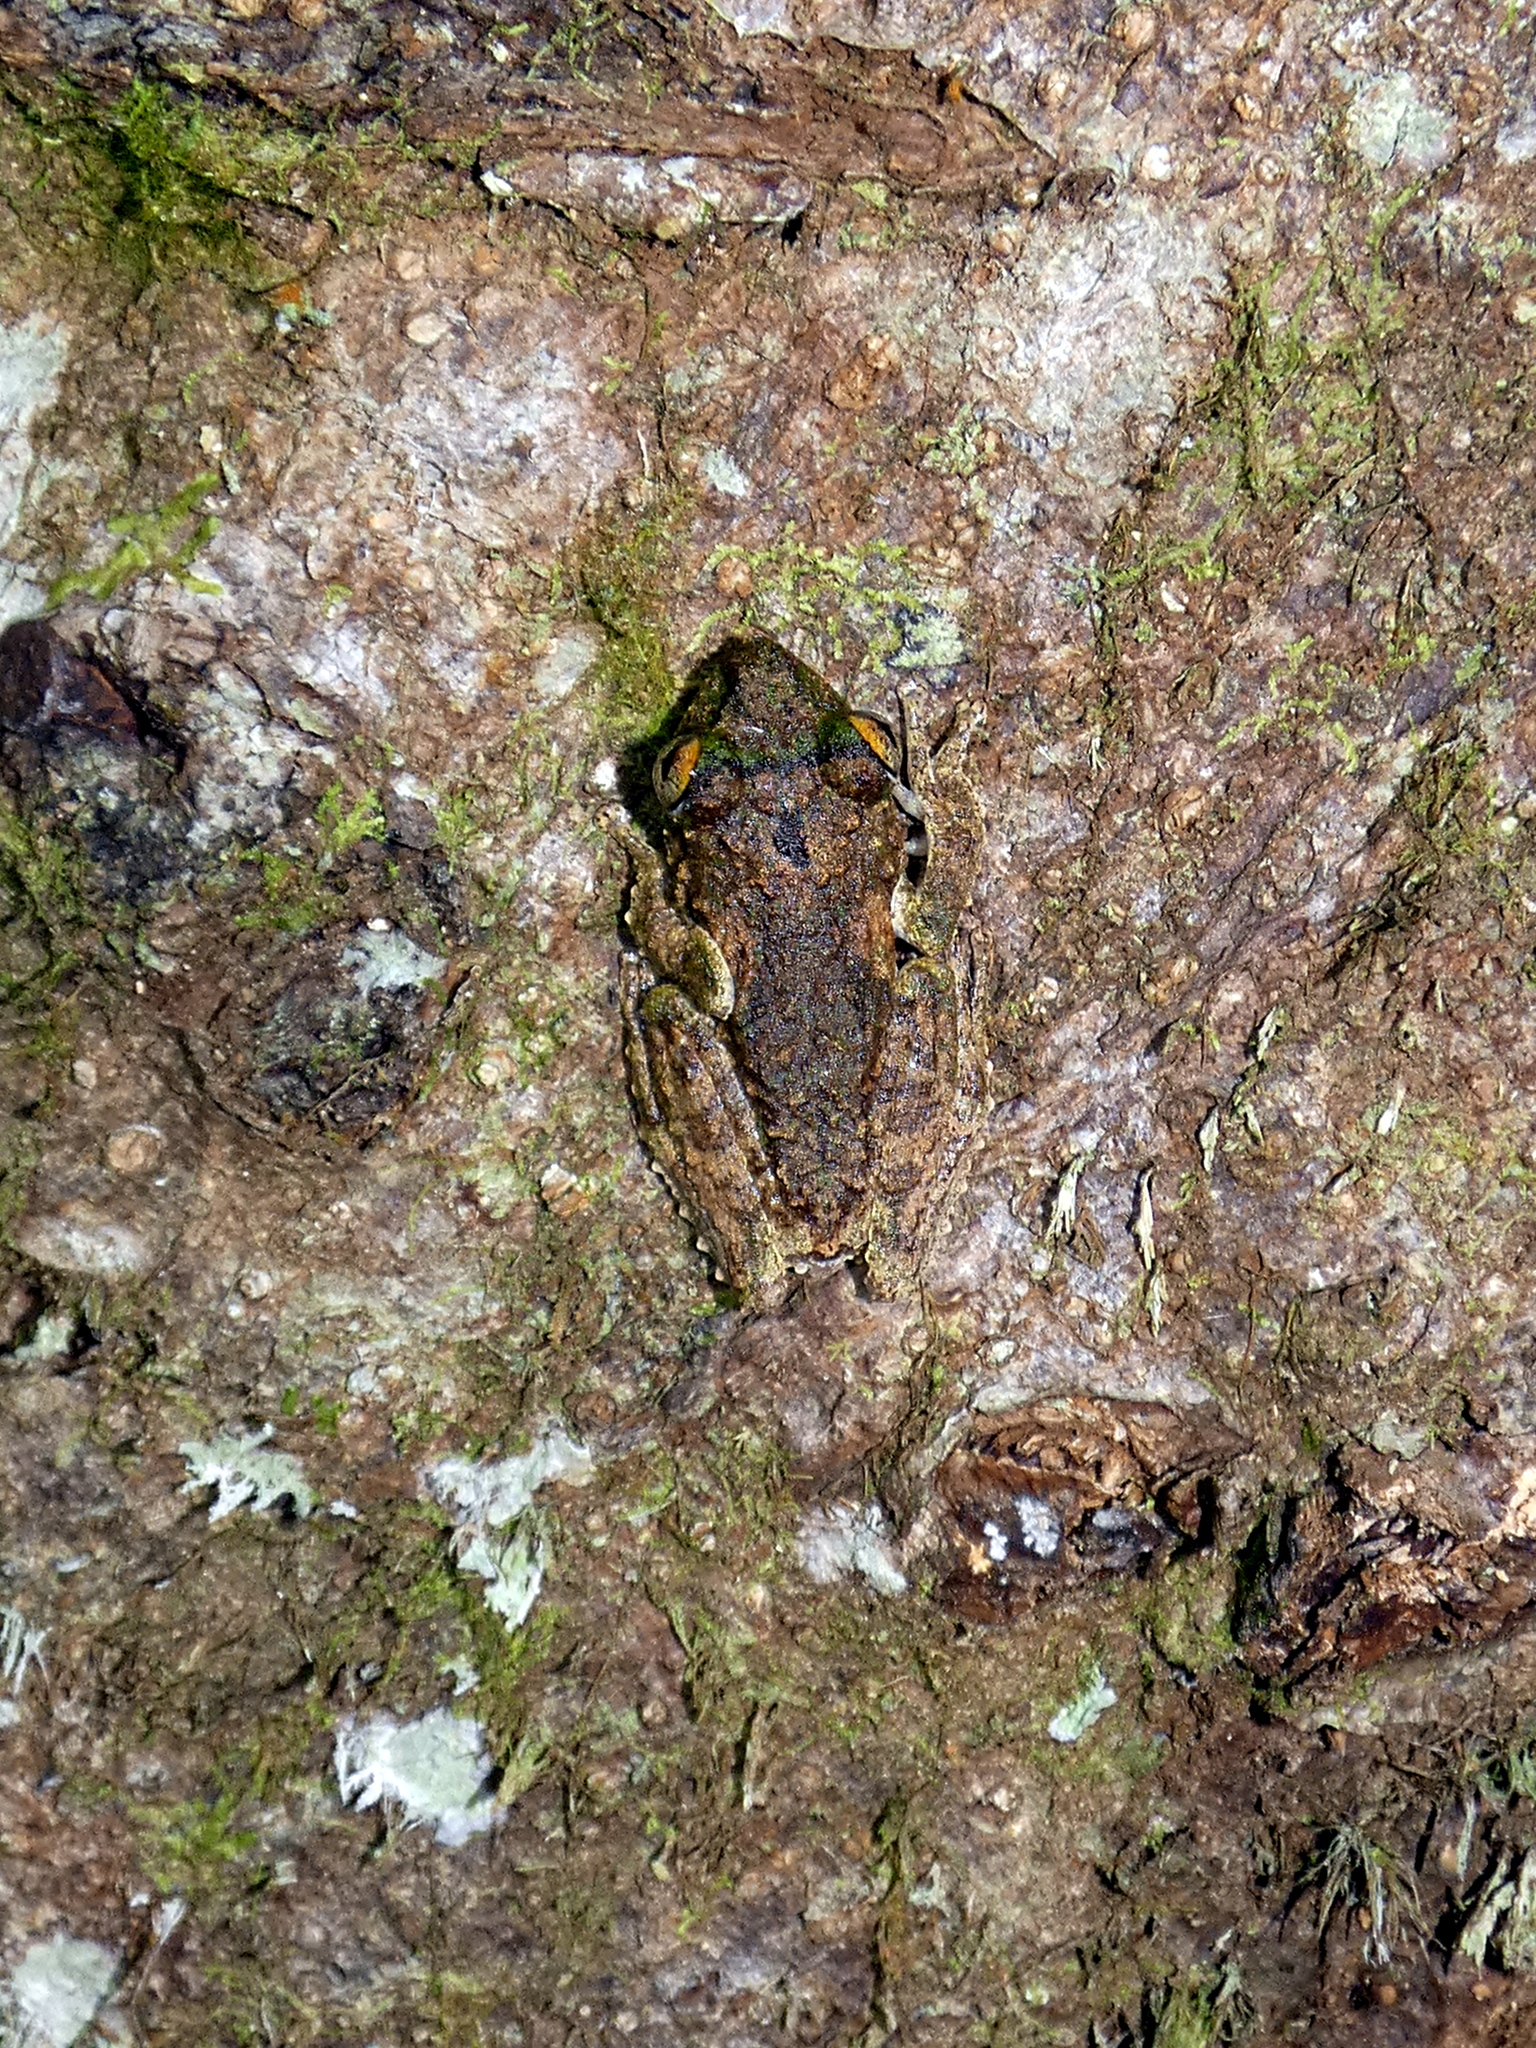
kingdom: Animalia
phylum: Chordata
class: Amphibia
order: Anura
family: Rhacophoridae
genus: Kurixalus
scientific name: Kurixalus chaseni
